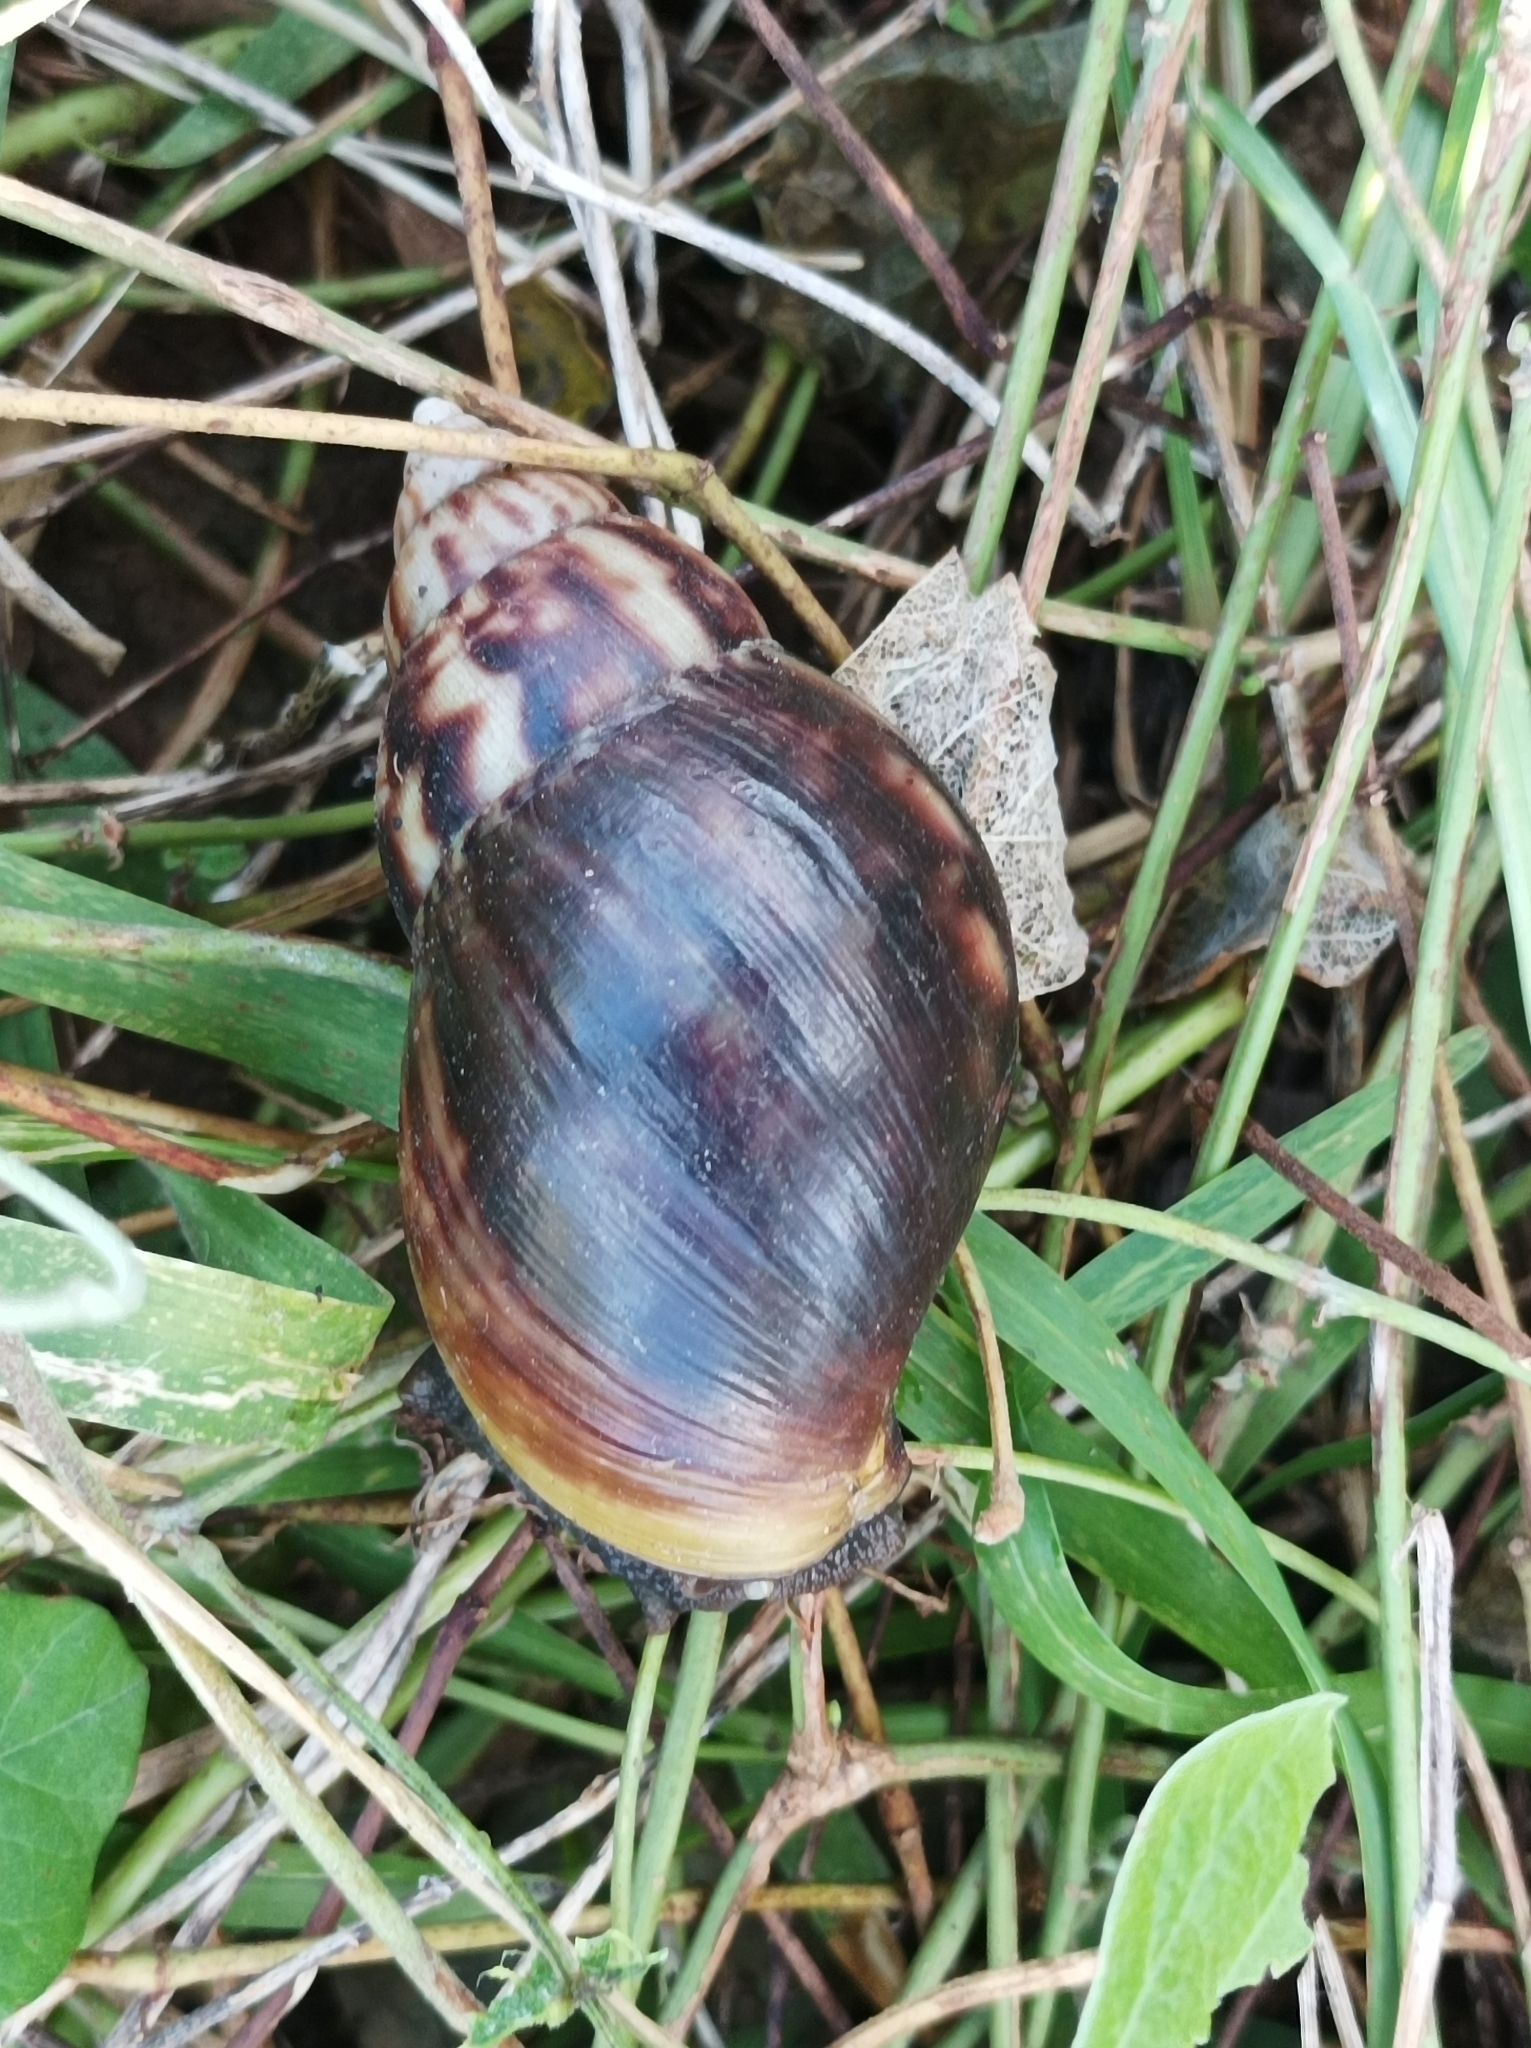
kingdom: Animalia
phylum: Mollusca
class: Gastropoda
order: Stylommatophora
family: Achatinidae
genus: Lissachatina
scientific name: Lissachatina fulica
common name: Giant african snail
